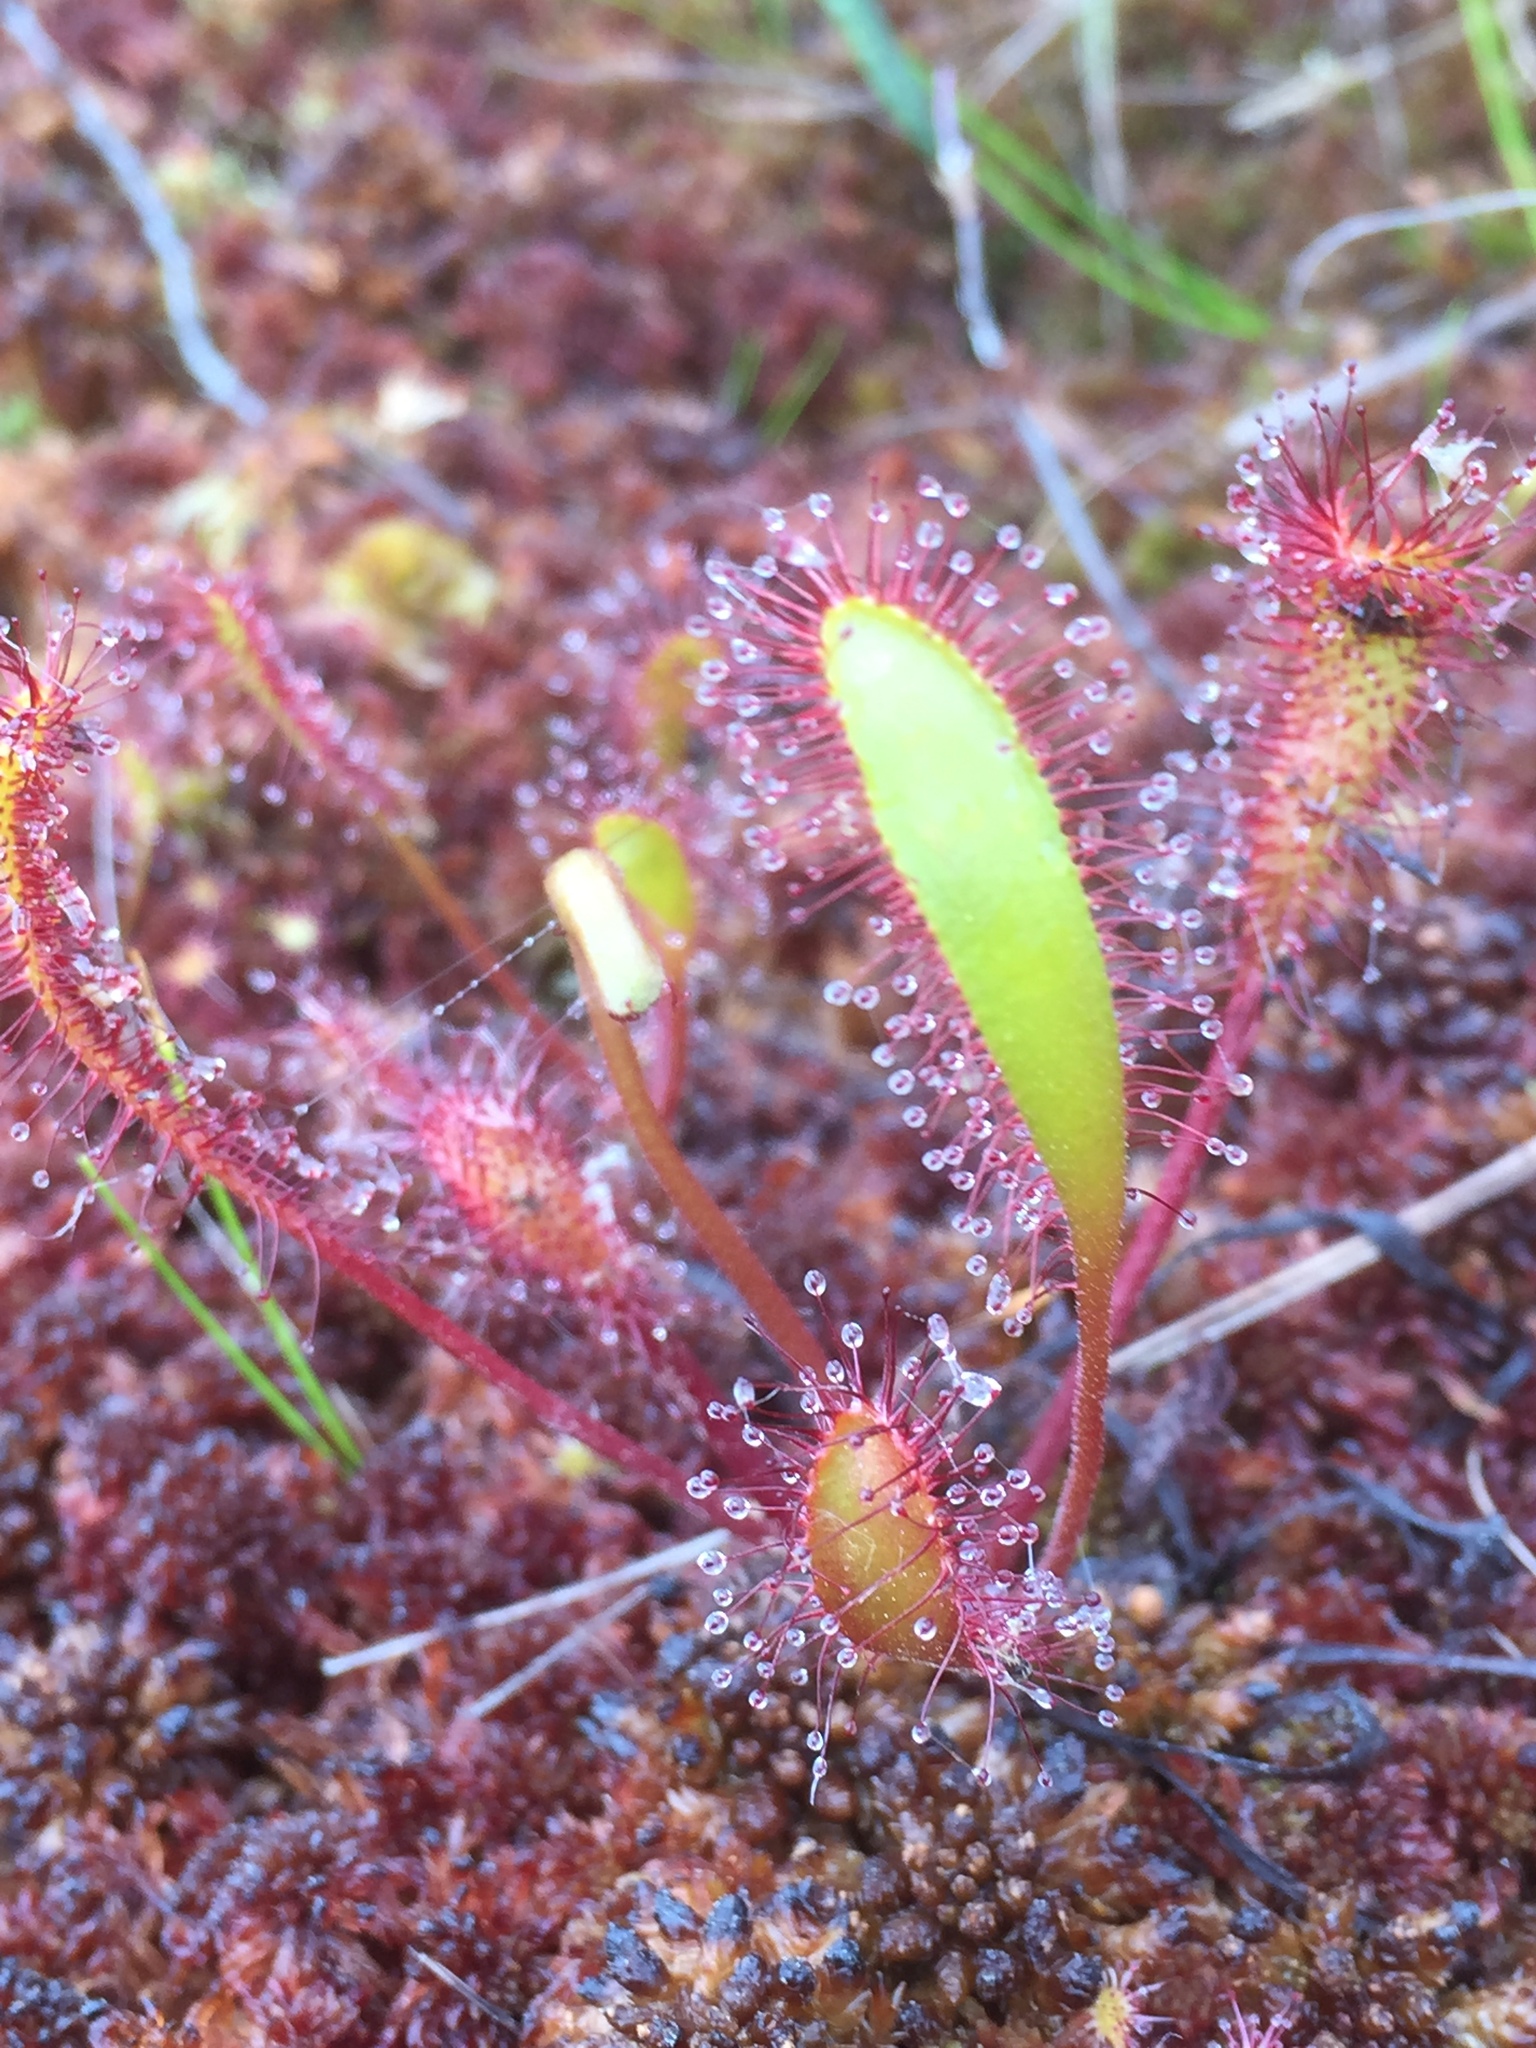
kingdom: Plantae
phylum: Tracheophyta
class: Magnoliopsida
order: Caryophyllales
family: Droseraceae
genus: Drosera
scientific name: Drosera anglica
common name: Great sundew
